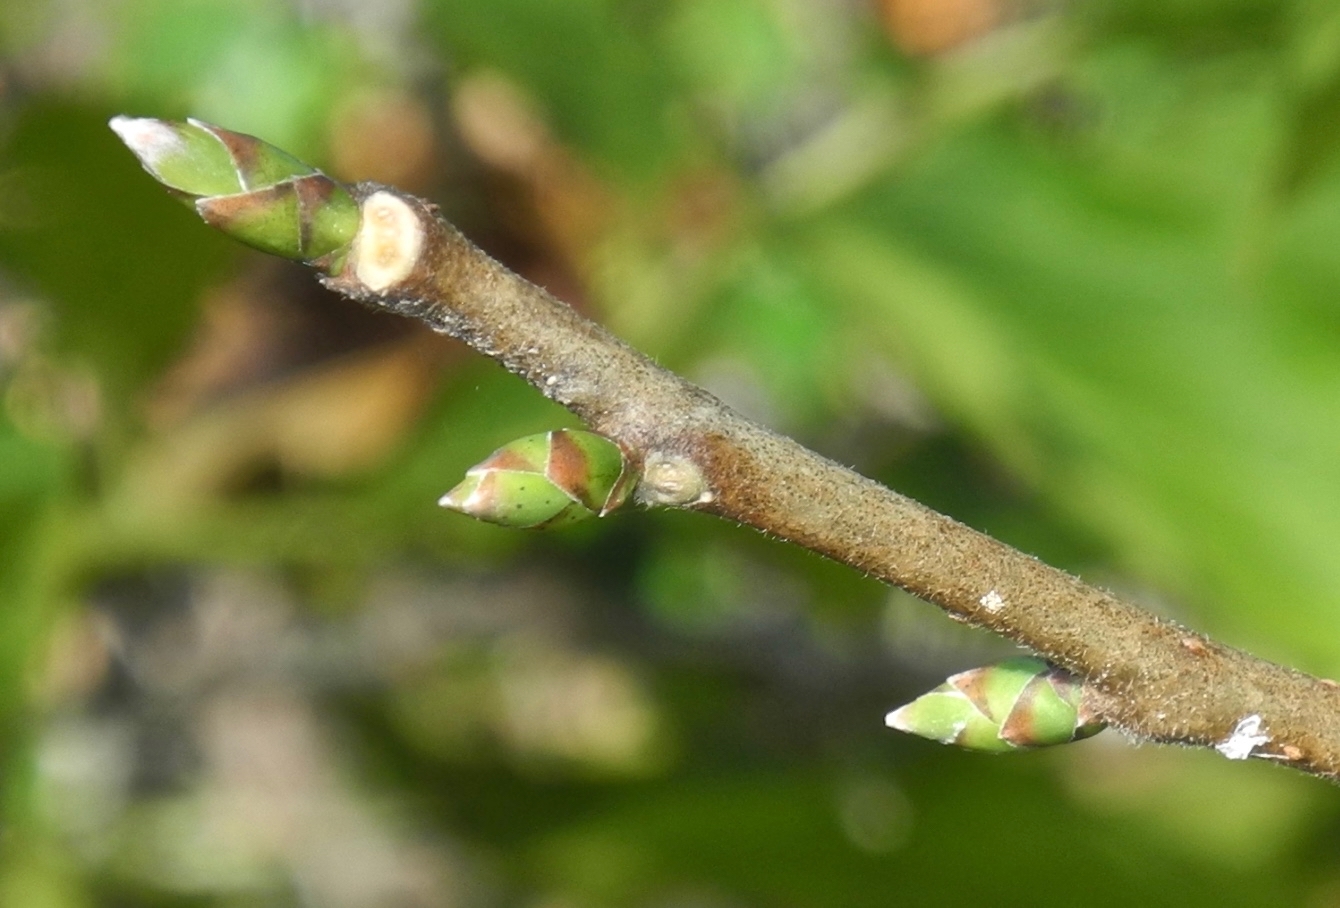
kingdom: Plantae
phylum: Tracheophyta
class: Magnoliopsida
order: Santalales
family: Cervantesiaceae
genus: Pyrularia
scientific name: Pyrularia pubera
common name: Oilnut
